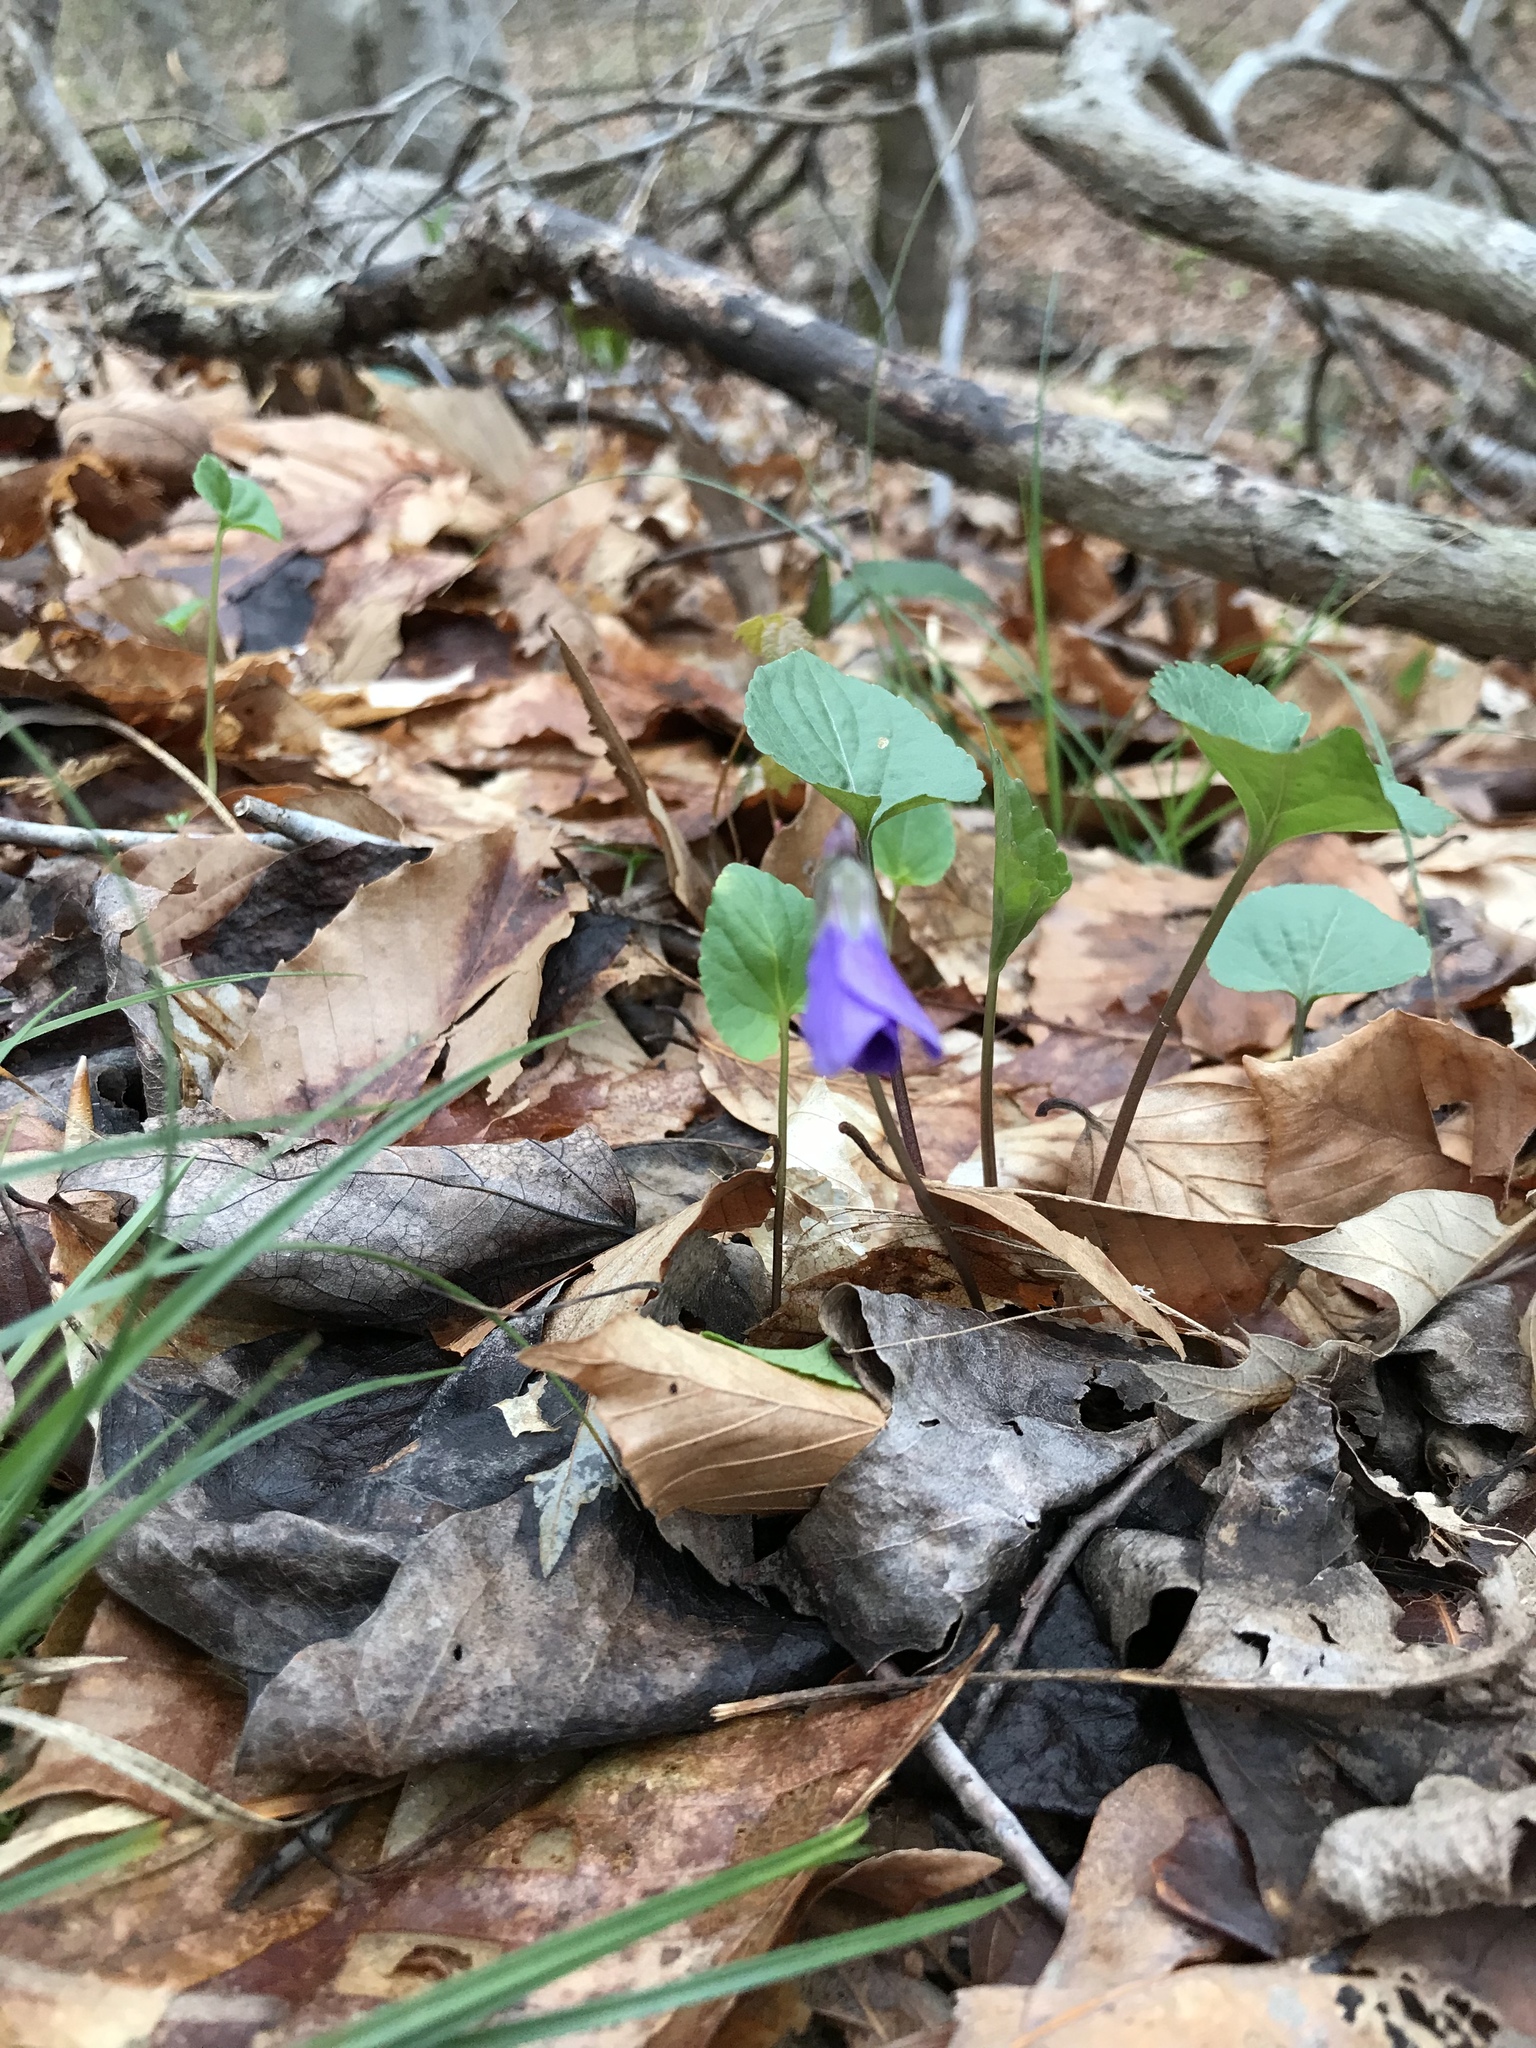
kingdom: Plantae
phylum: Tracheophyta
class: Magnoliopsida
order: Malpighiales
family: Violaceae
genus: Viola
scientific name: Viola sororia
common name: Dooryard violet
